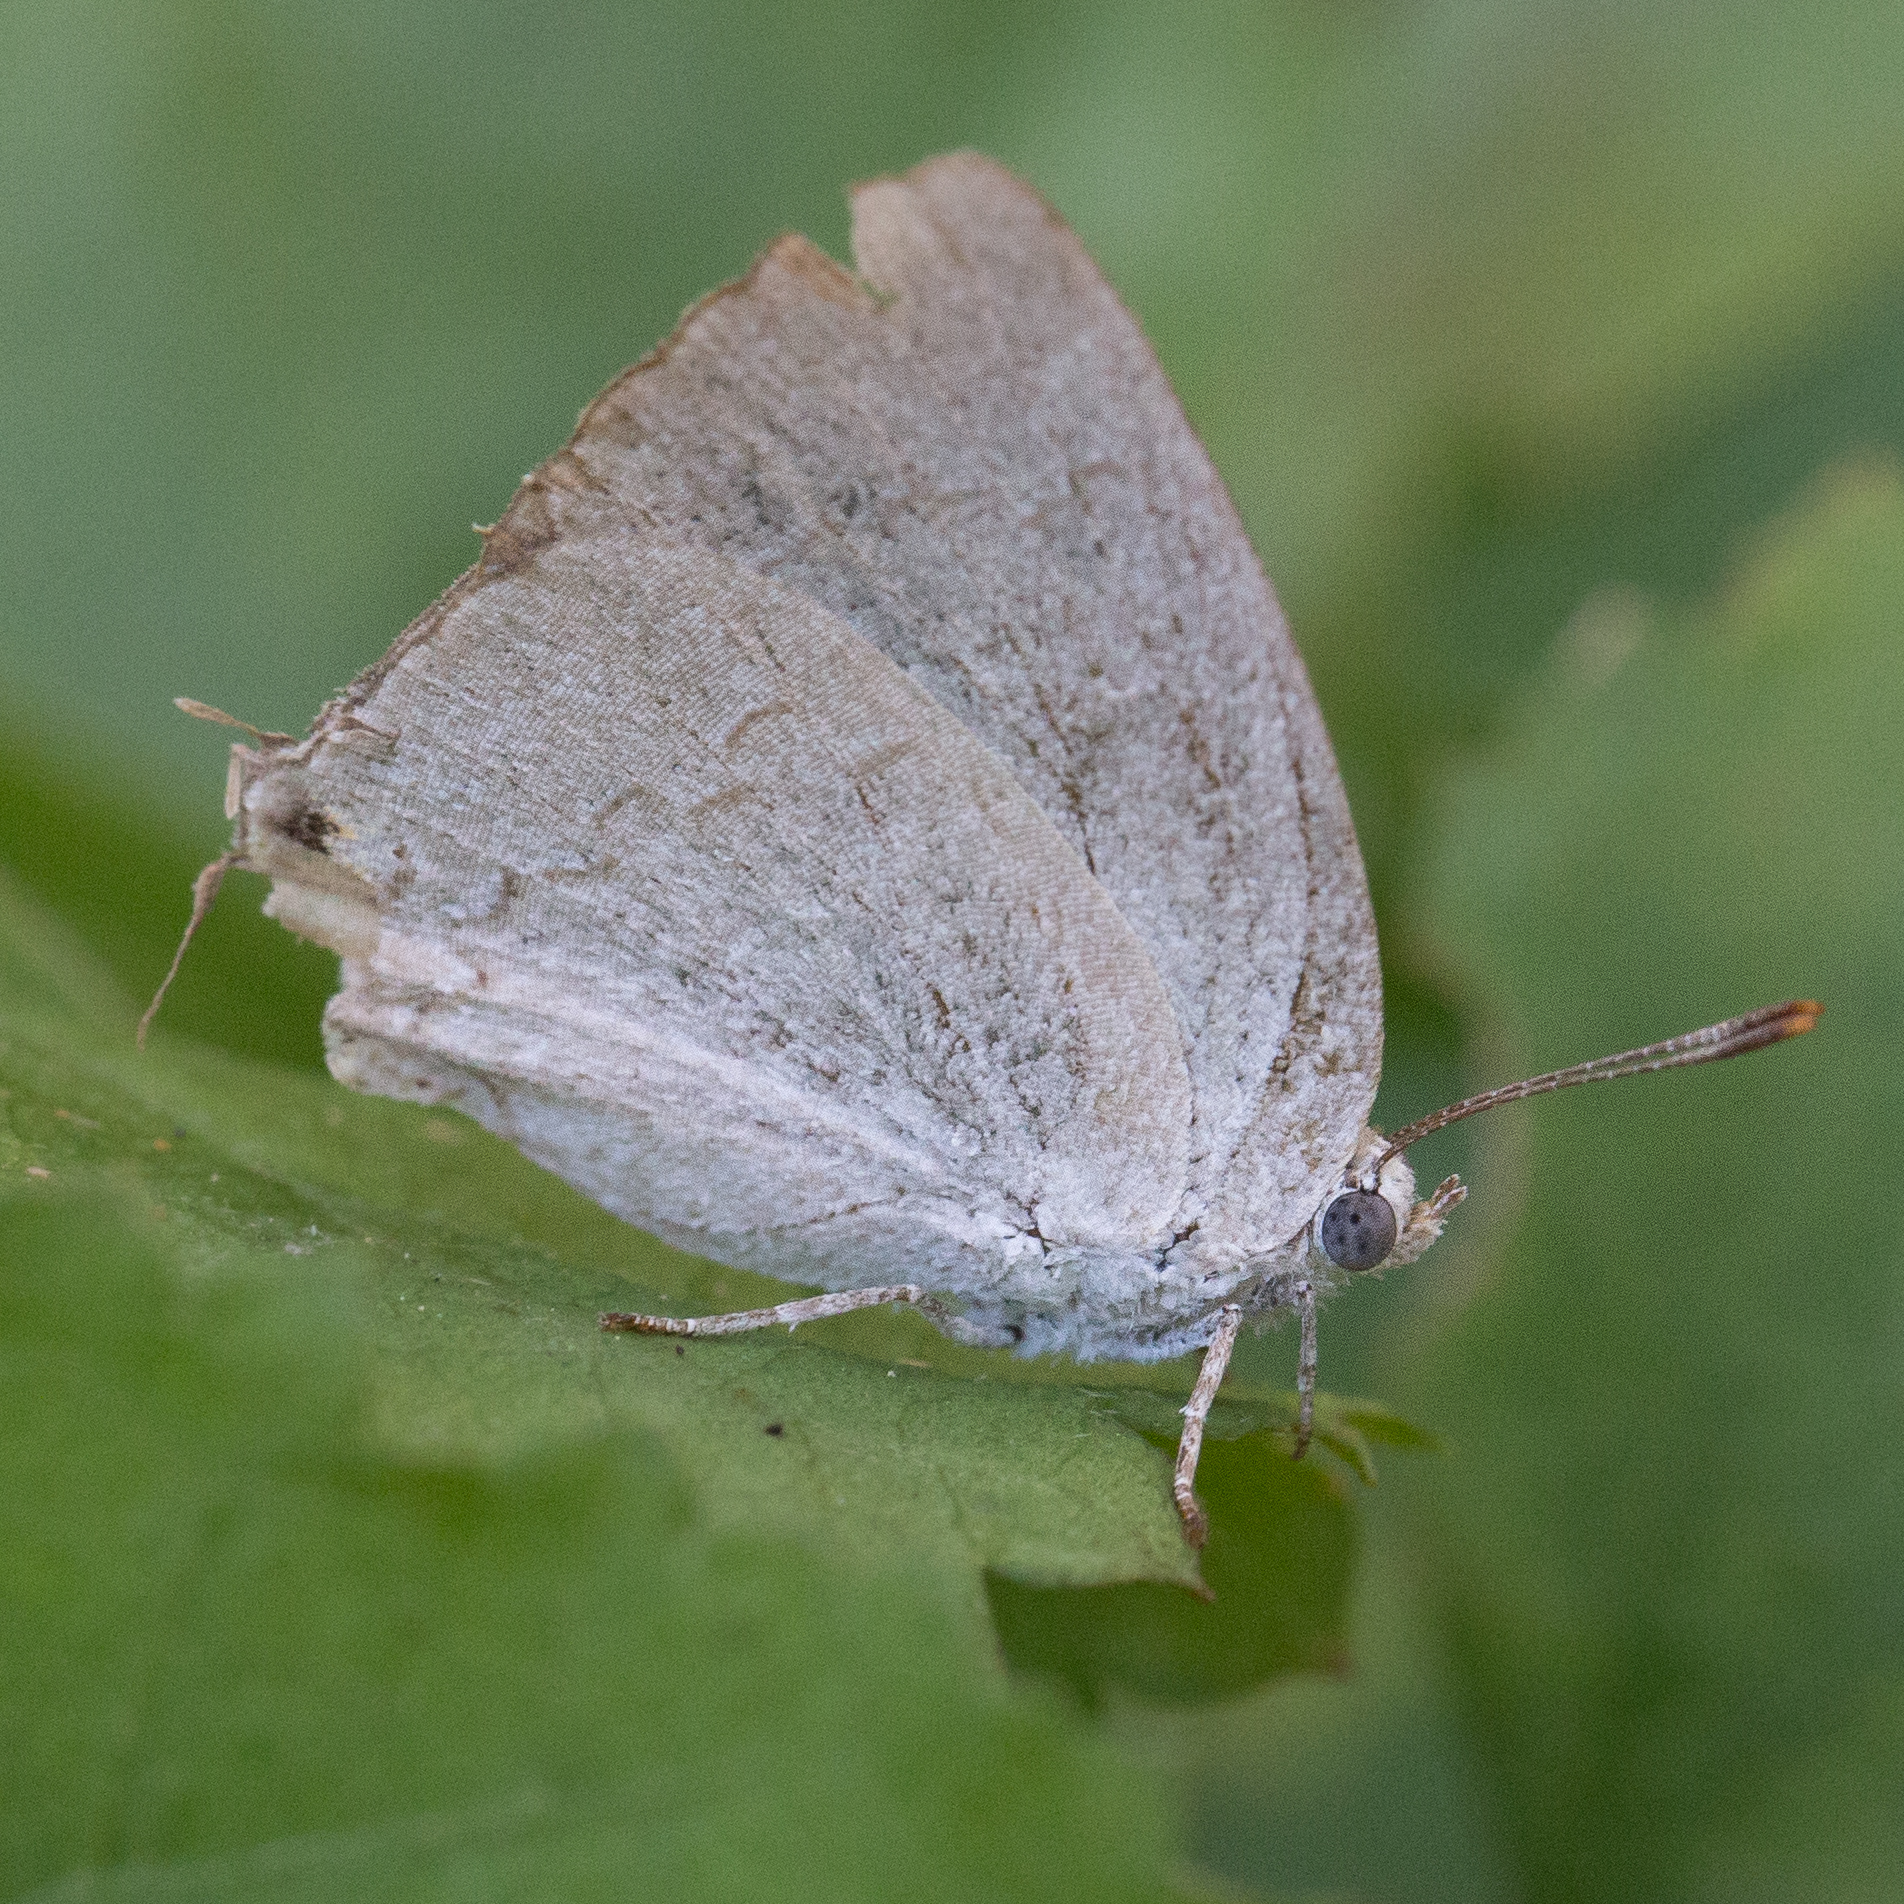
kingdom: Animalia
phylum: Arthropoda
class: Insecta
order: Lepidoptera
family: Lycaenidae
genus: Hypostrymon
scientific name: Hypostrymon critola
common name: Sonoran hairstreak
